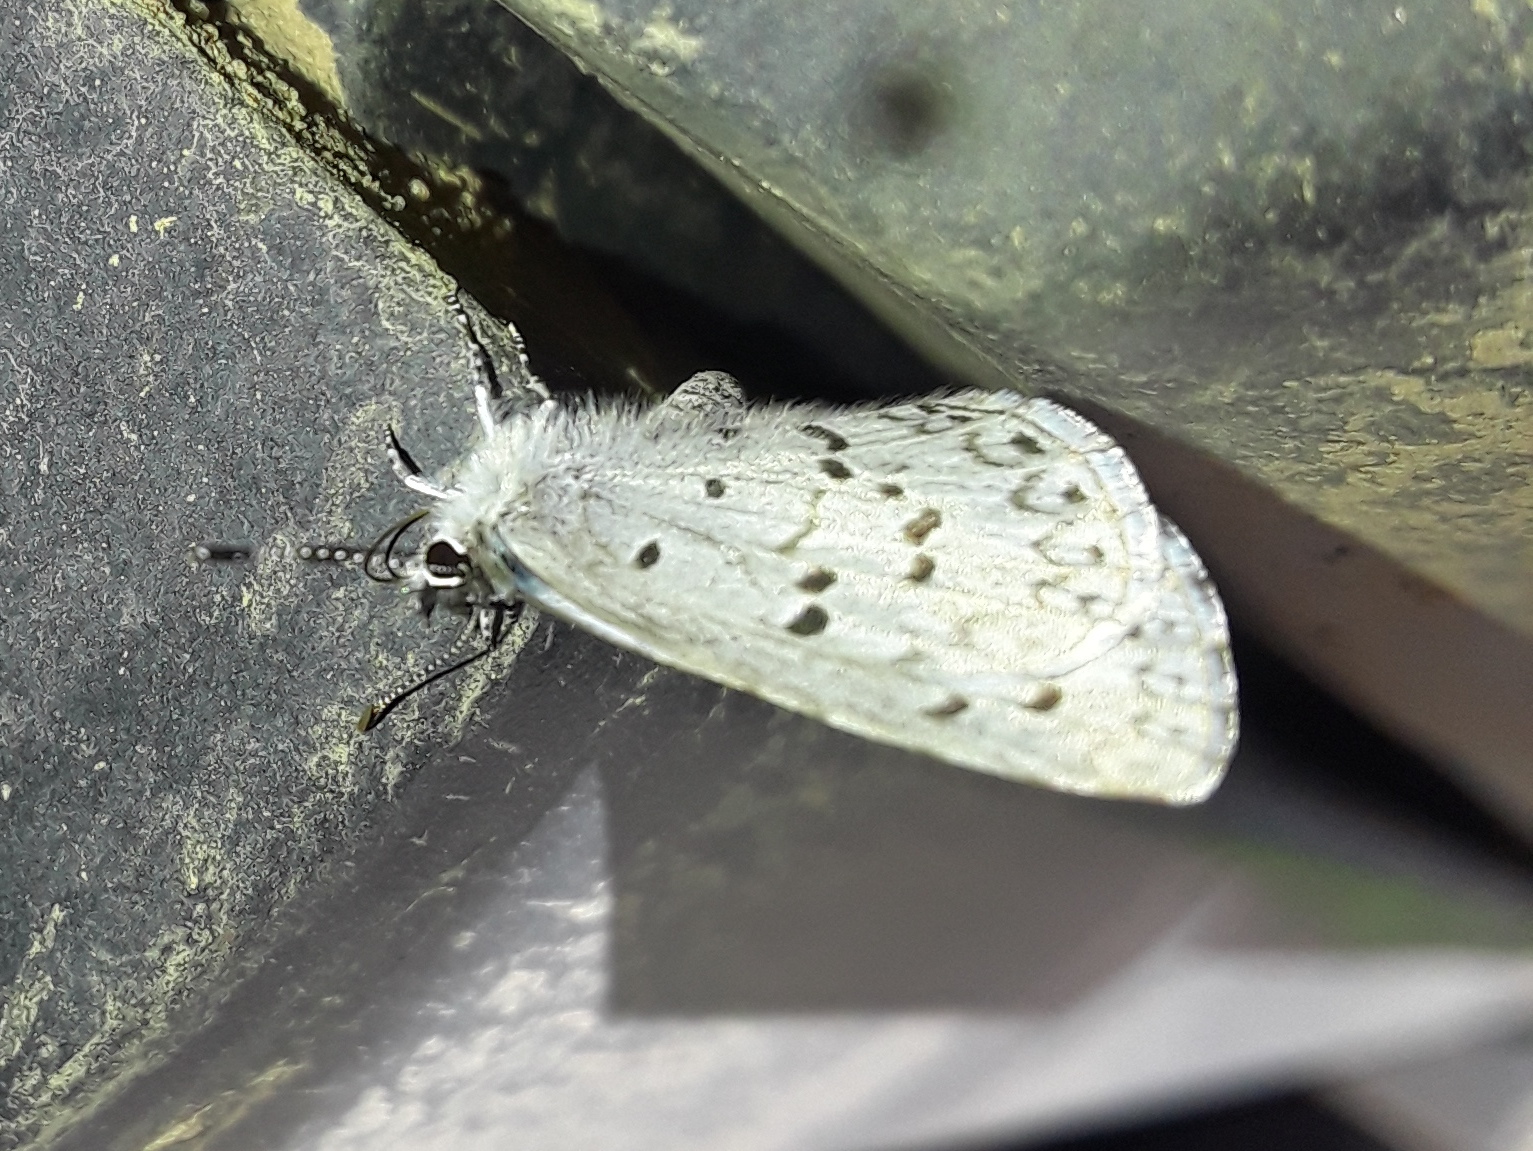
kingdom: Animalia
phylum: Arthropoda
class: Insecta
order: Lepidoptera
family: Lycaenidae
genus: Celastrina
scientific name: Celastrina ladon
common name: Spring azure
